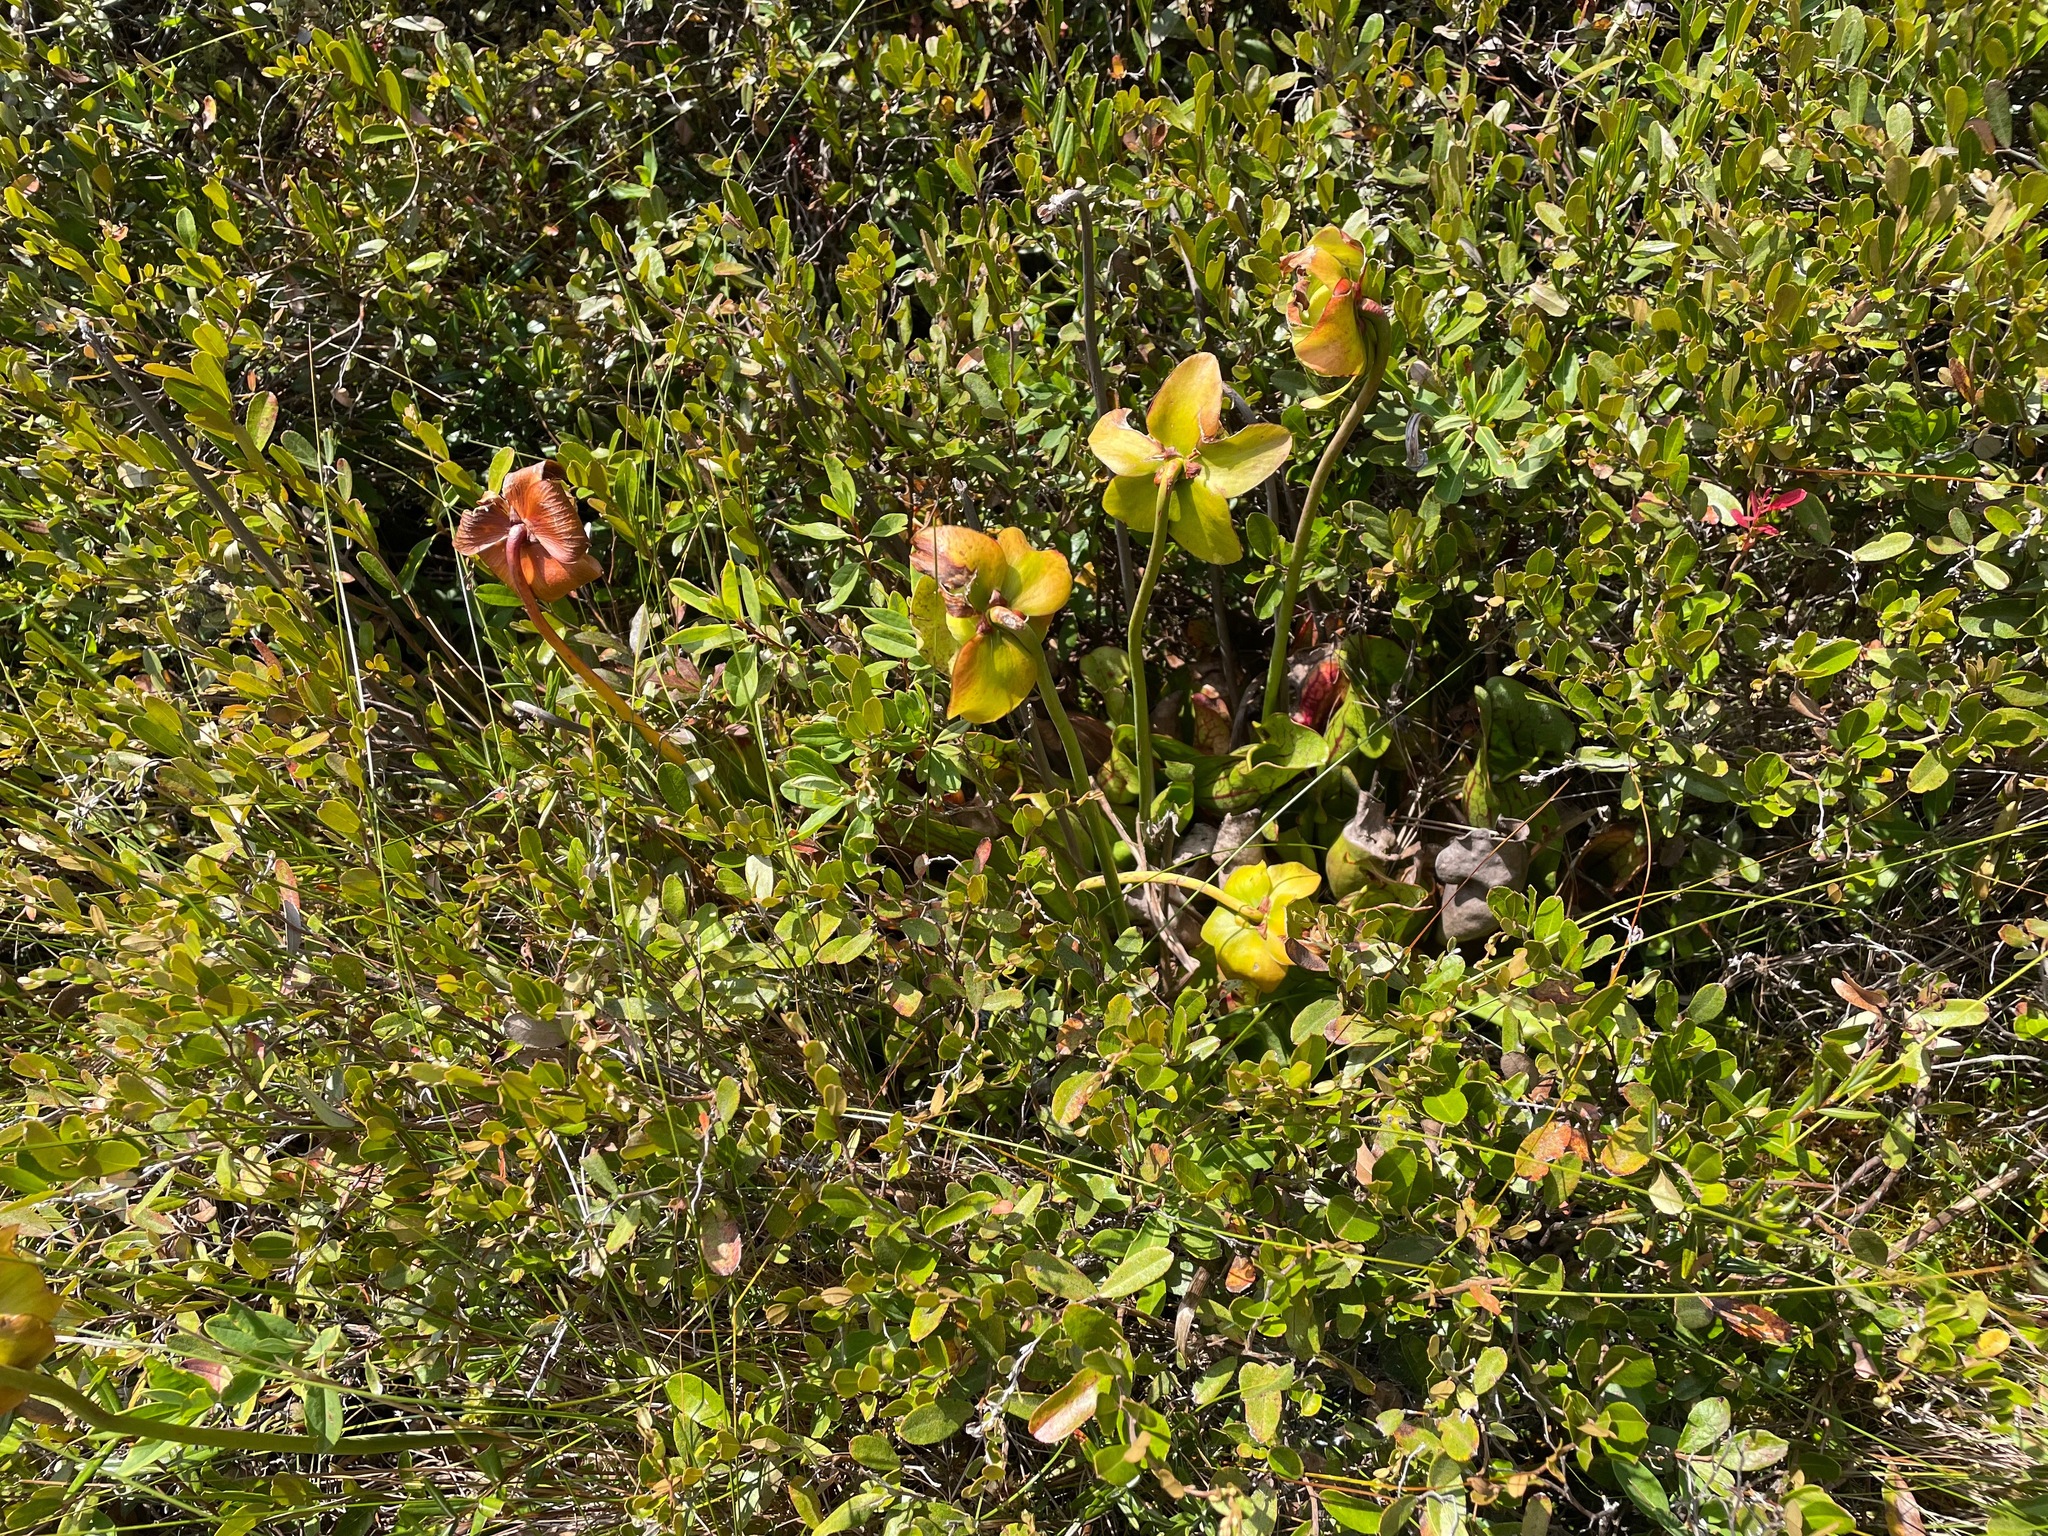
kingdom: Plantae
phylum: Tracheophyta
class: Magnoliopsida
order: Ericales
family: Sarraceniaceae
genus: Sarracenia
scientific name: Sarracenia purpurea
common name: Pitcherplant
